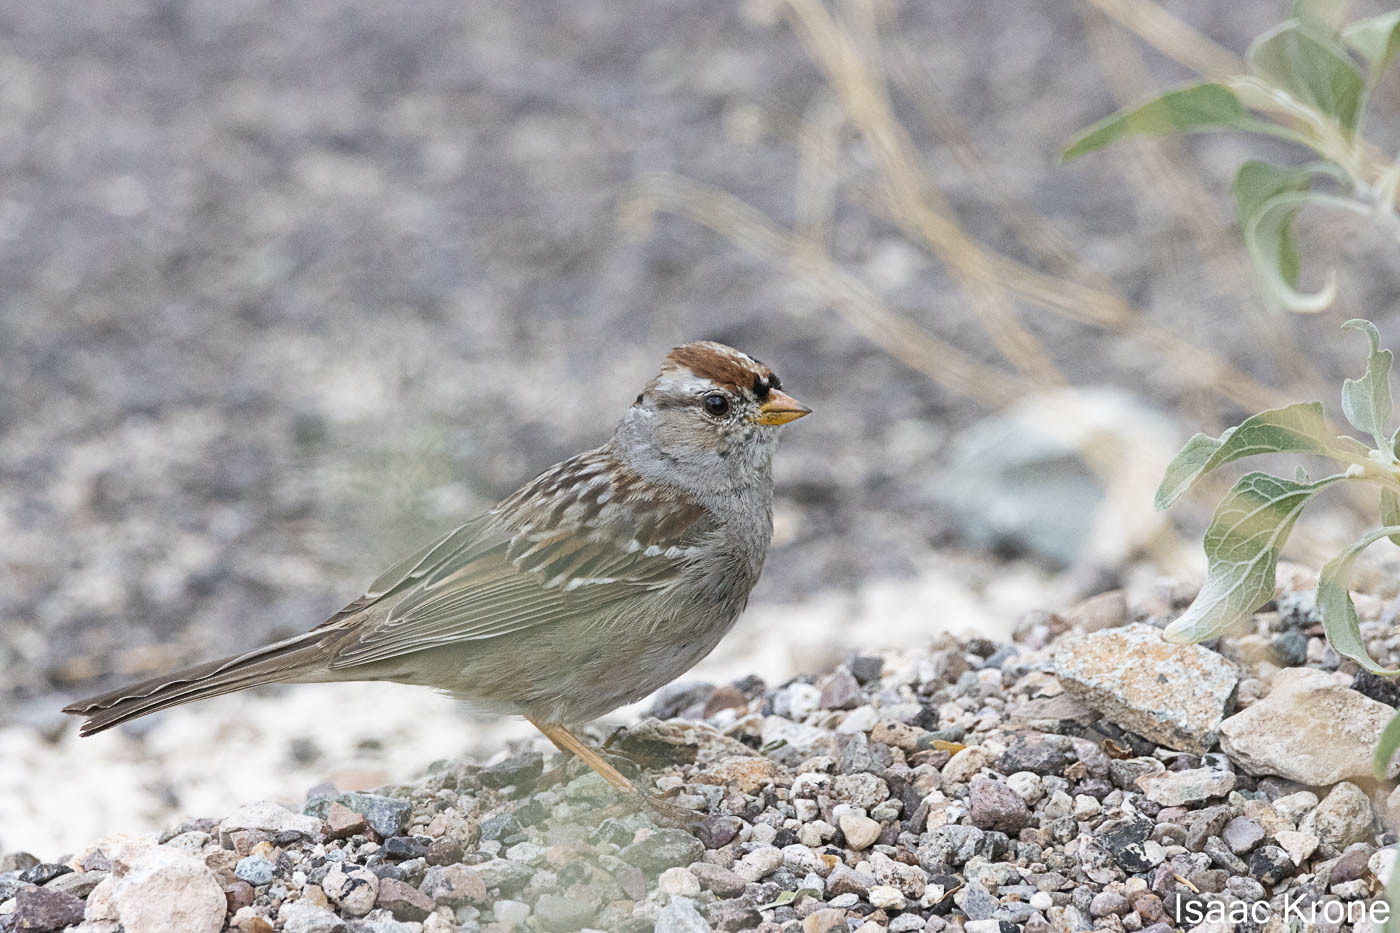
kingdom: Animalia
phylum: Chordata
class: Aves
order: Passeriformes
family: Passerellidae
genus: Zonotrichia
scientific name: Zonotrichia leucophrys
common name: White-crowned sparrow
